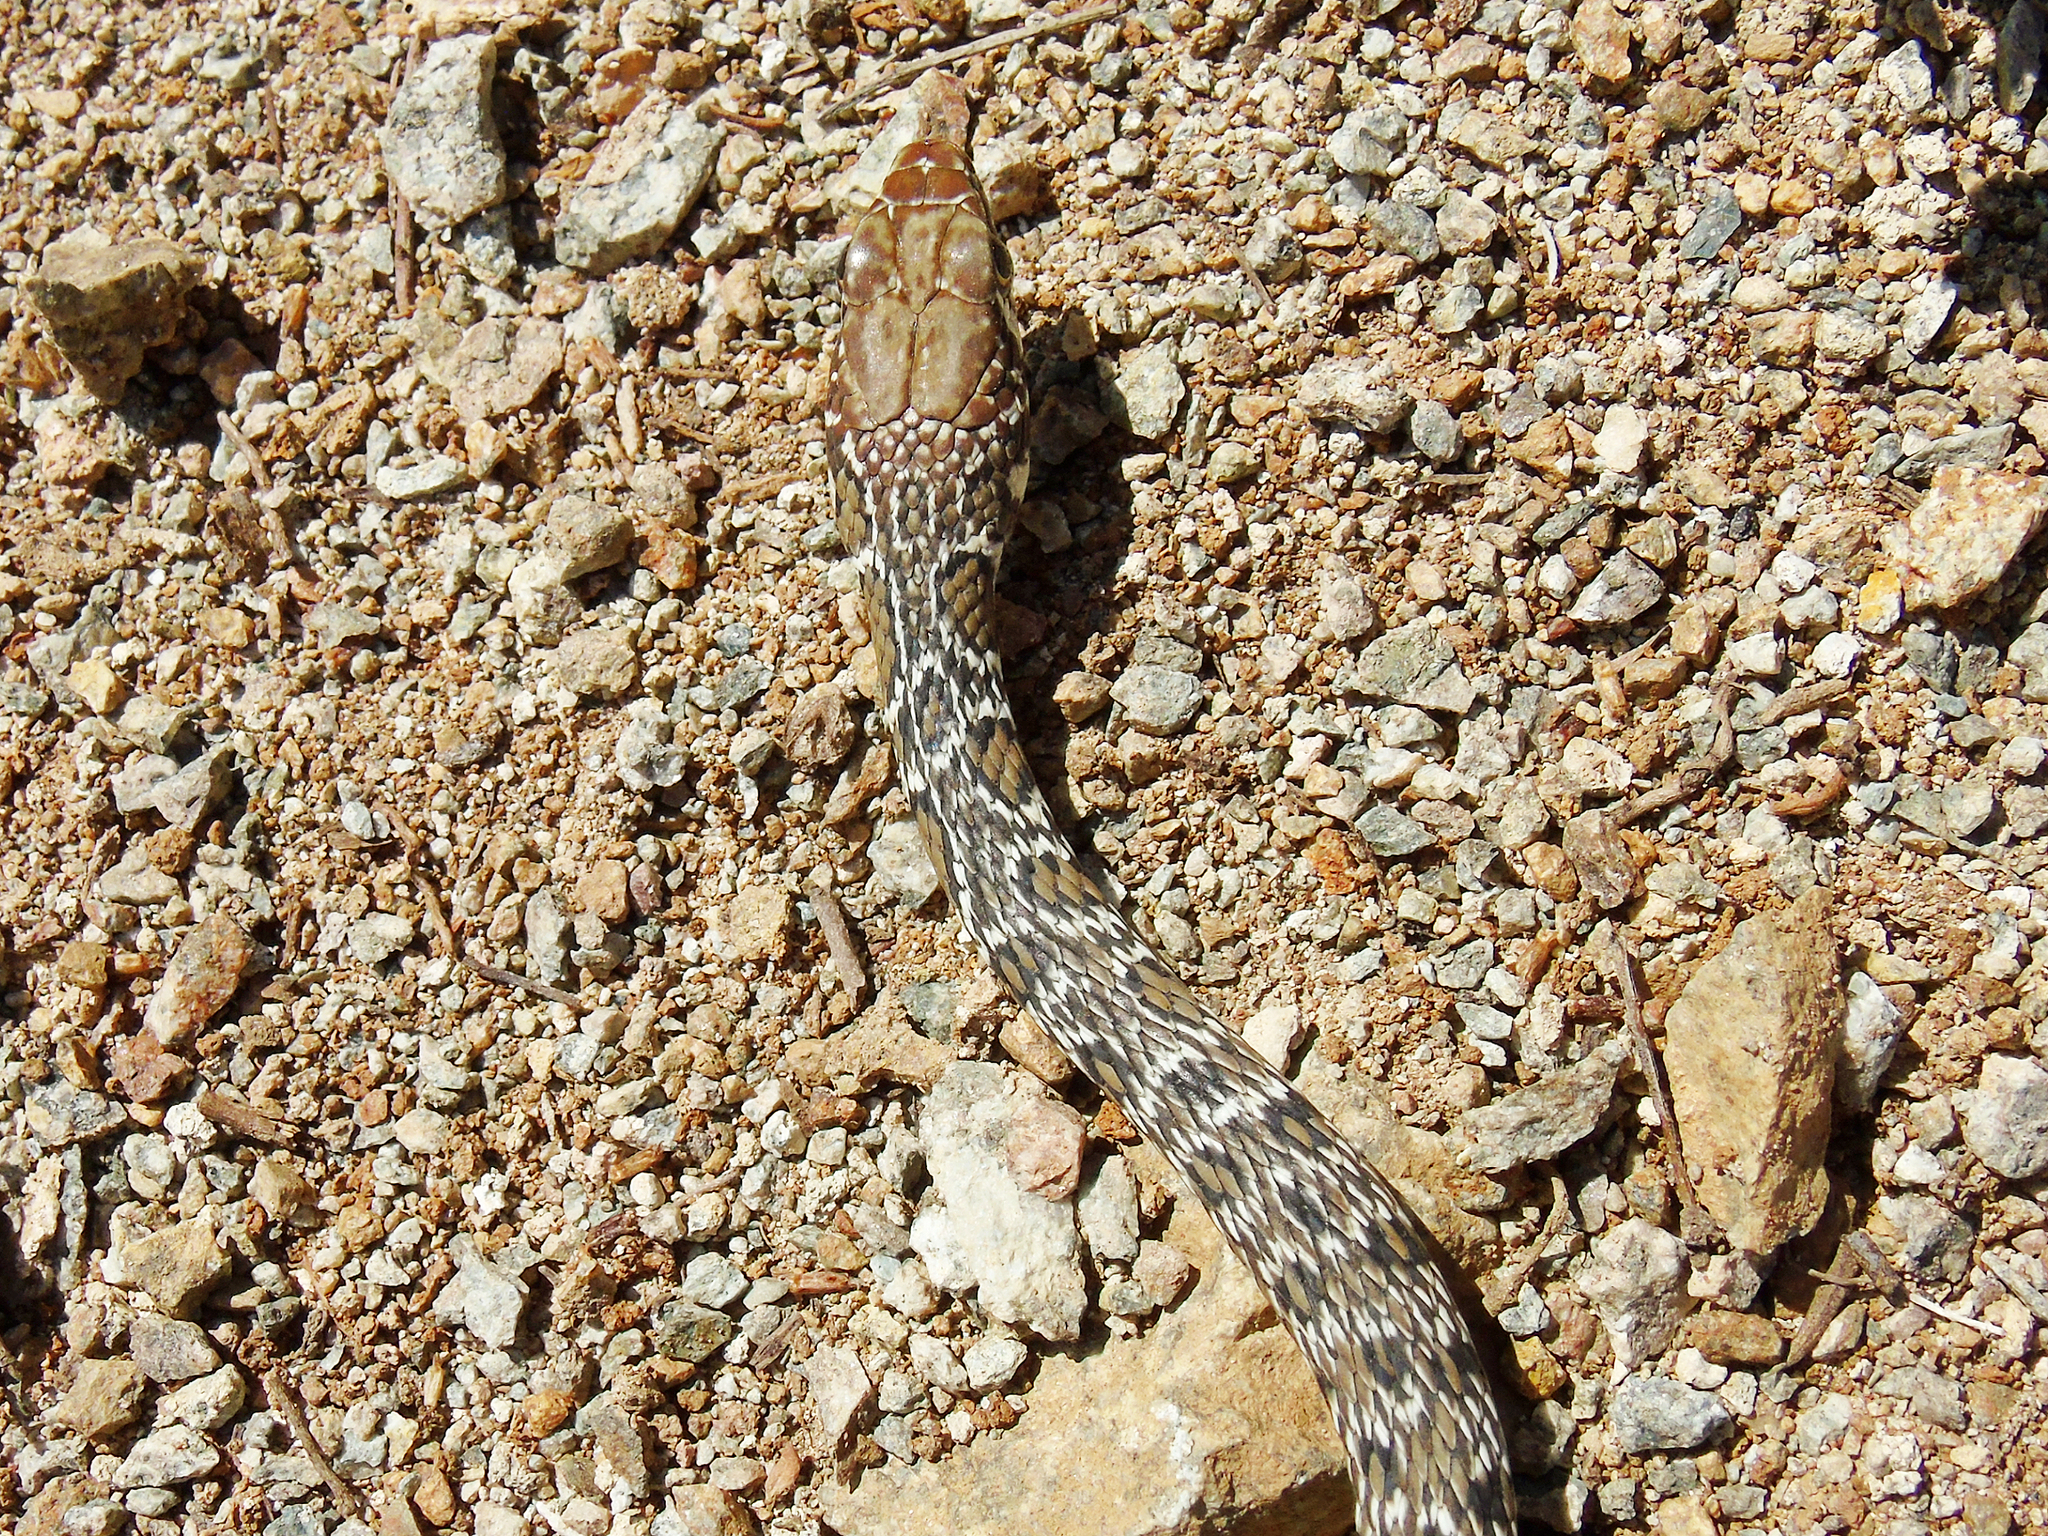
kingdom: Animalia
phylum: Chordata
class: Squamata
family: Colubridae
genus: Platyceps
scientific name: Platyceps najadum
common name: Dahl's whip snake
